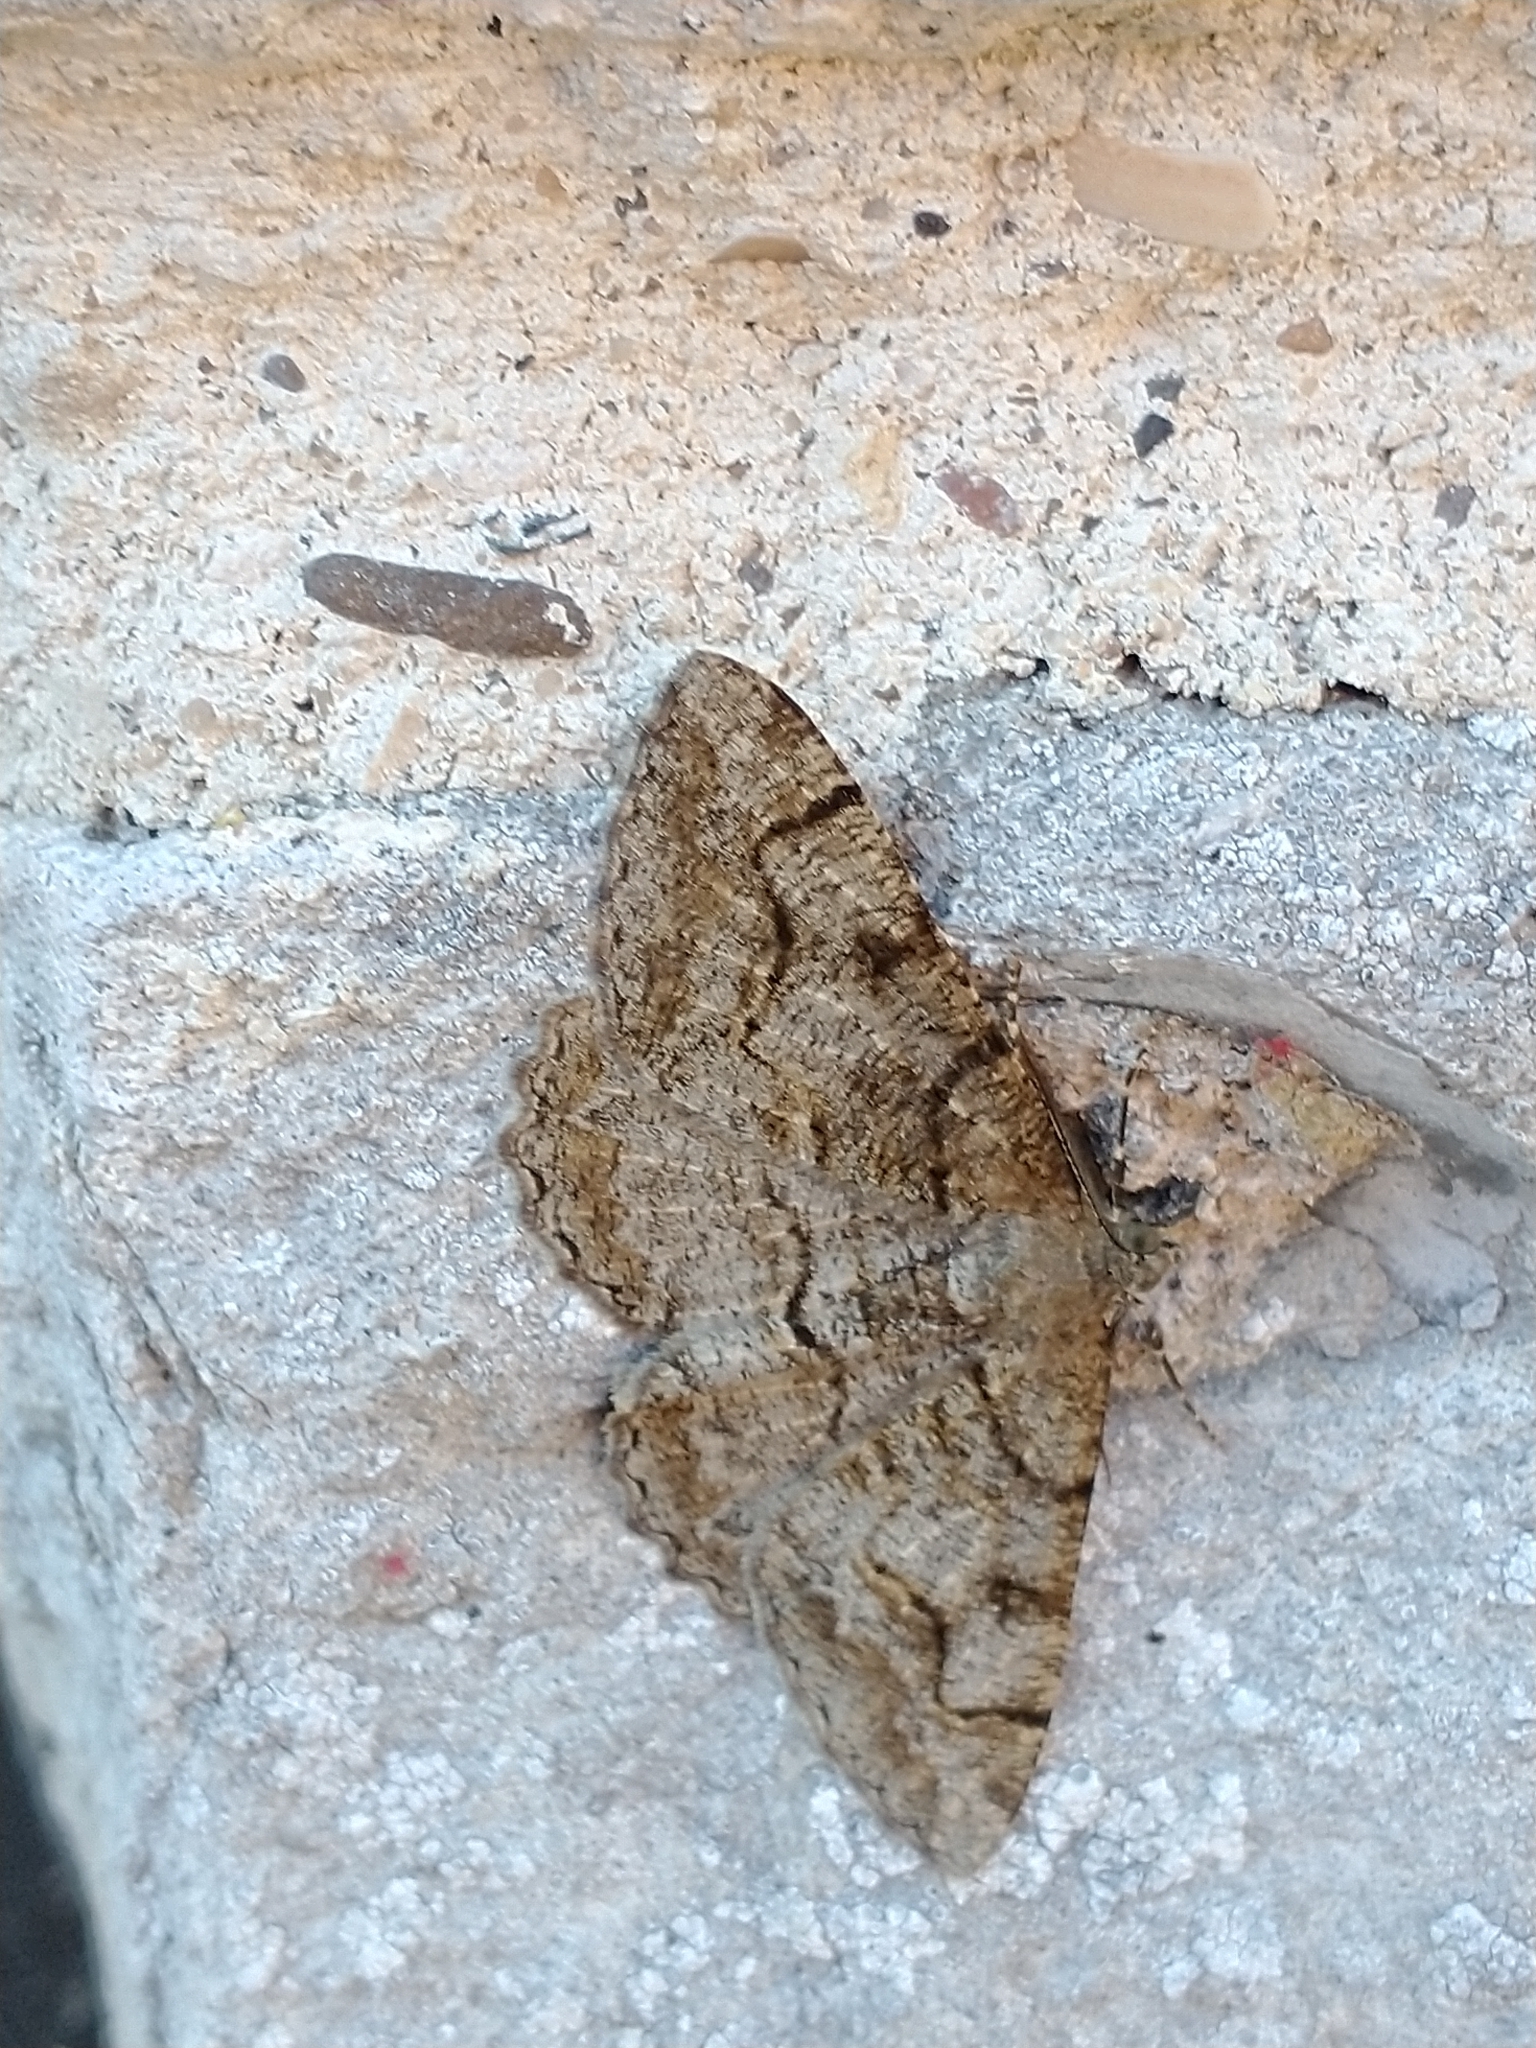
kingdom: Animalia
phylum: Arthropoda
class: Insecta
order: Lepidoptera
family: Geometridae
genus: Alcis
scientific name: Alcis repandata
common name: Mottled beauty
